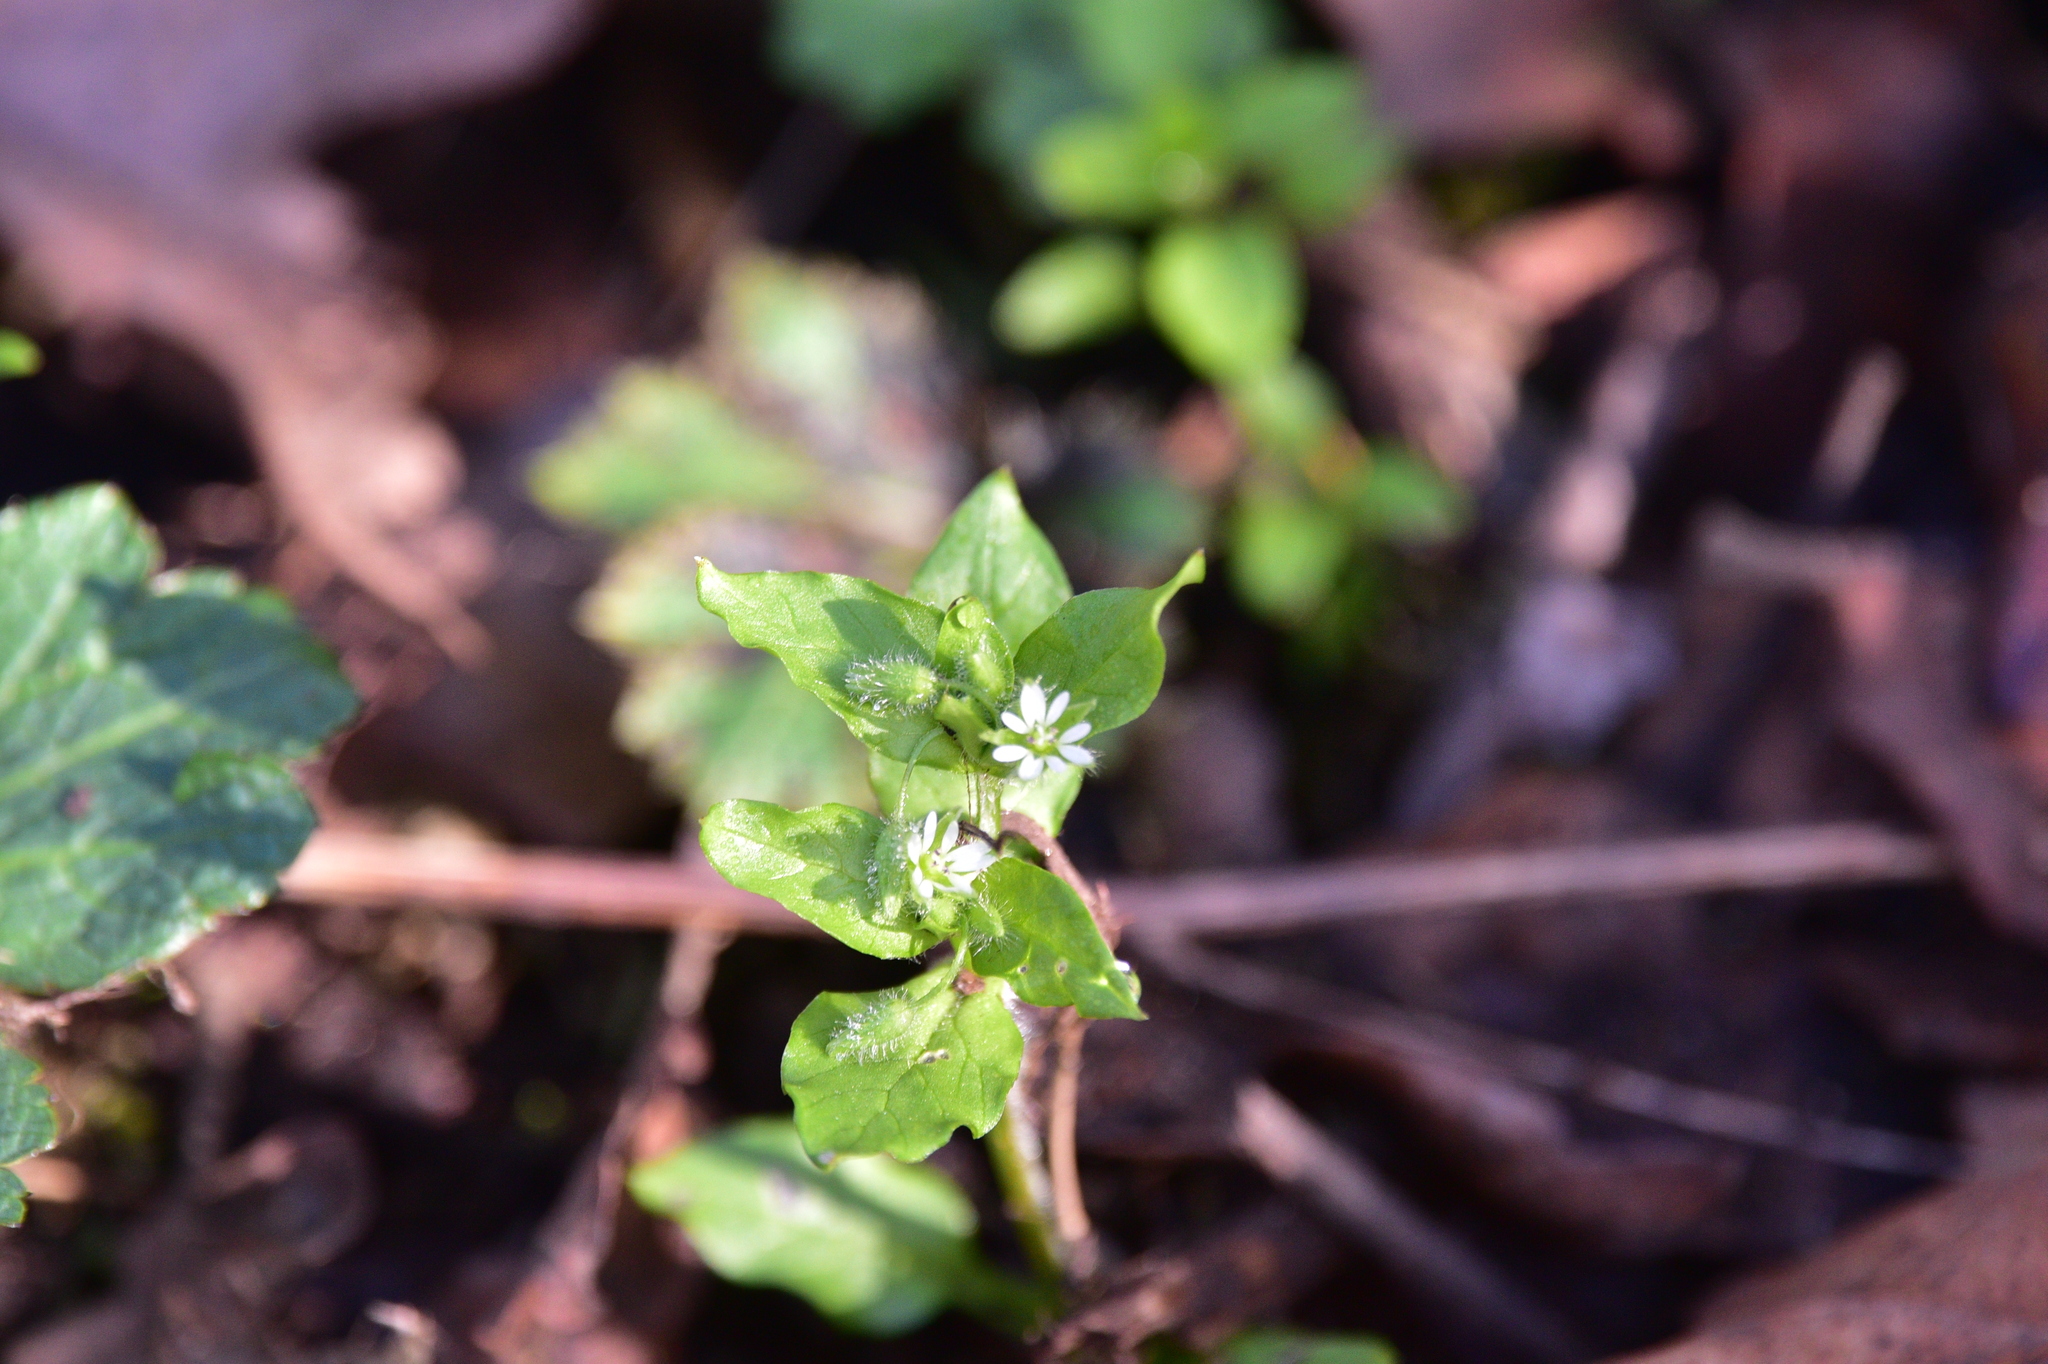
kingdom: Plantae
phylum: Tracheophyta
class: Magnoliopsida
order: Caryophyllales
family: Caryophyllaceae
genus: Stellaria
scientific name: Stellaria media
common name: Common chickweed
